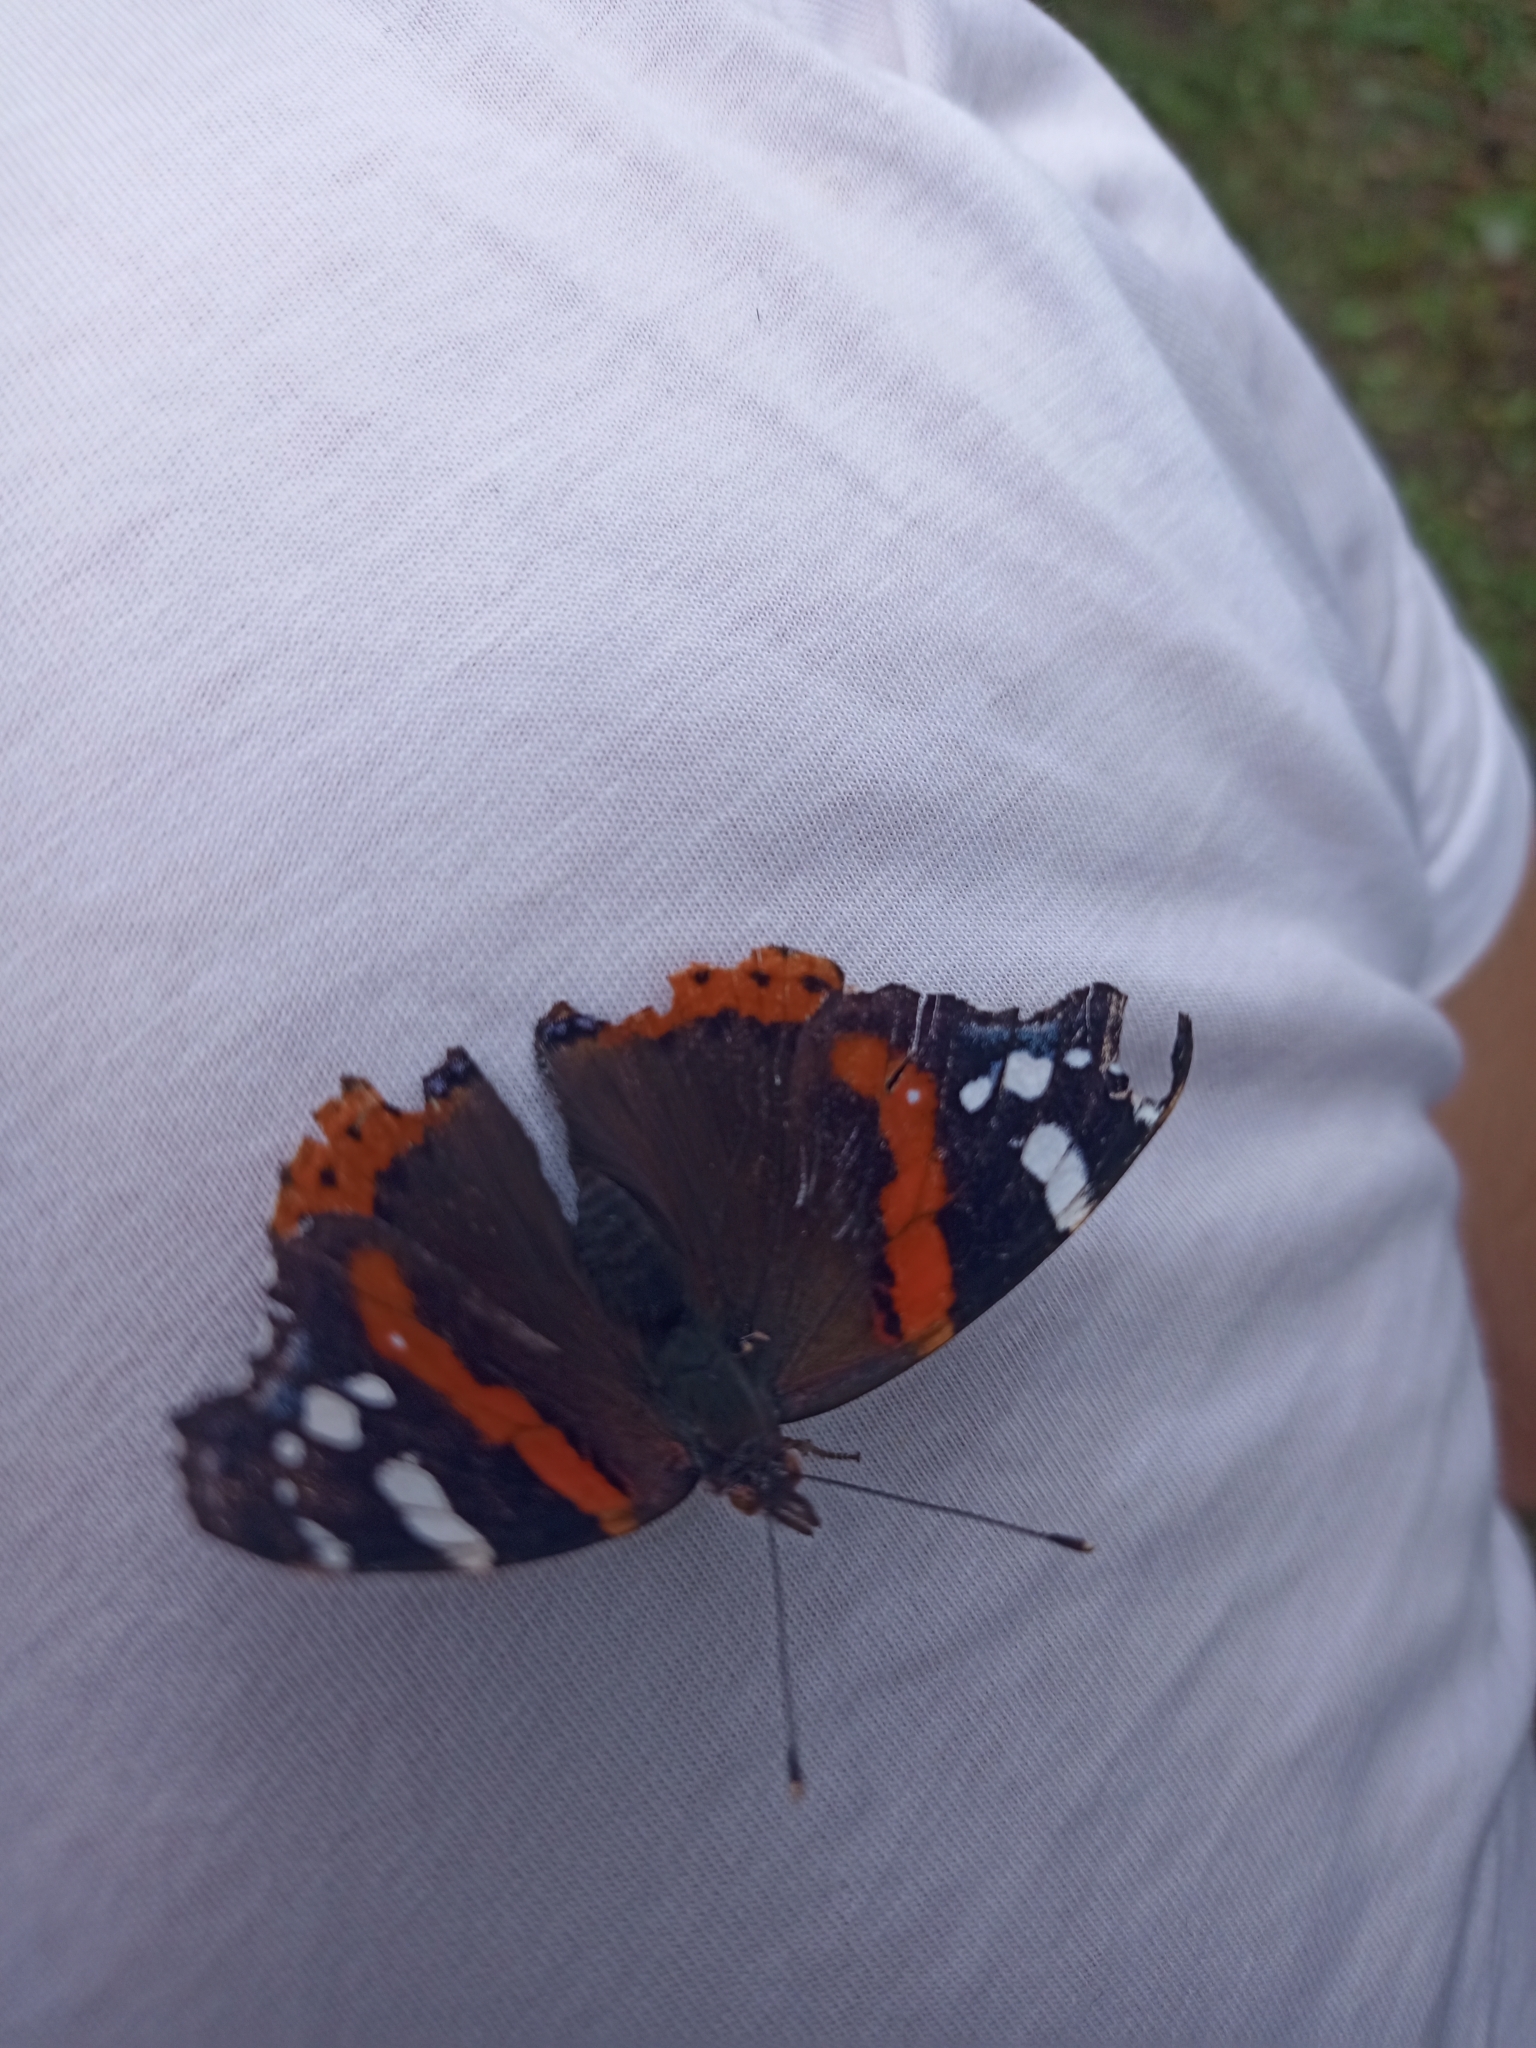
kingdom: Animalia
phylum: Arthropoda
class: Insecta
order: Lepidoptera
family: Nymphalidae
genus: Vanessa
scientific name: Vanessa atalanta
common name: Red admiral
